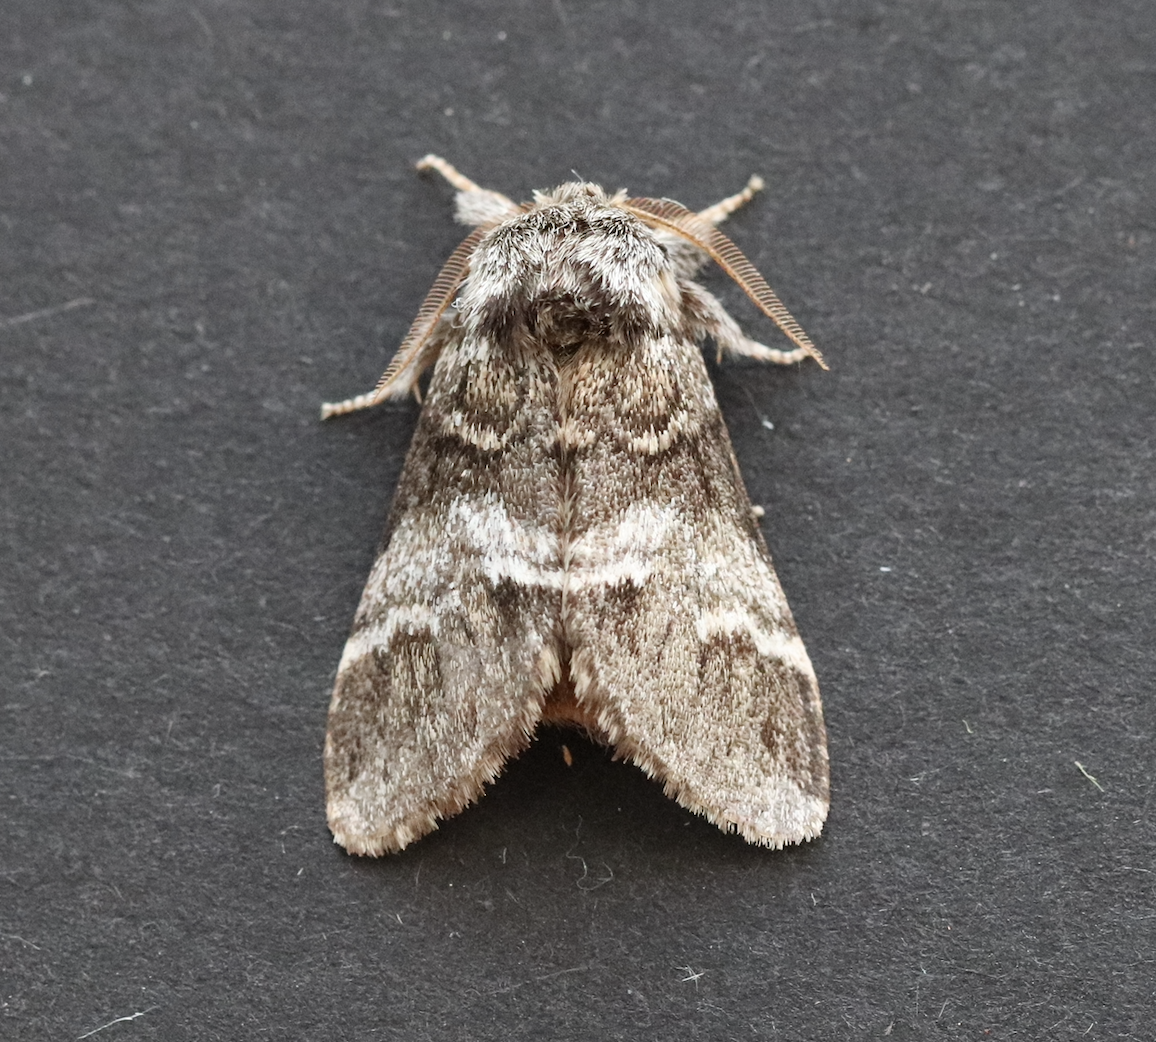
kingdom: Animalia
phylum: Arthropoda
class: Insecta
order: Lepidoptera
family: Notodontidae
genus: Drymonia
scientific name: Drymonia dodonaea
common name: Marbled brown
